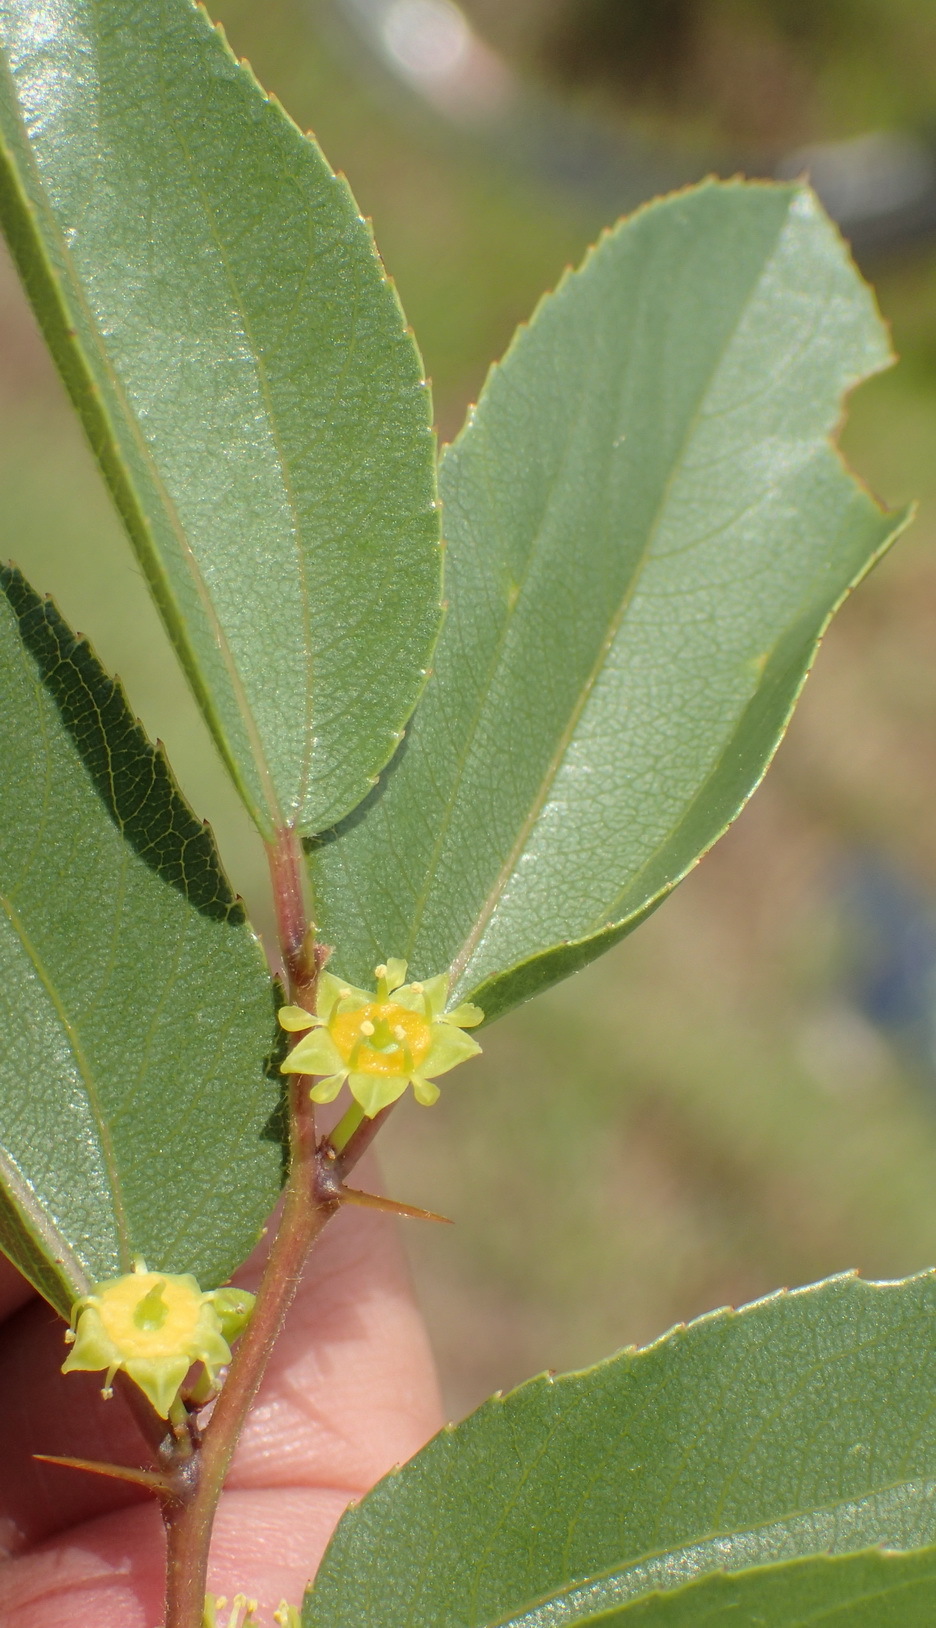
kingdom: Plantae
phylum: Tracheophyta
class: Magnoliopsida
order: Rosales
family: Rhamnaceae
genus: Ziziphus
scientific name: Ziziphus zeyheriana
